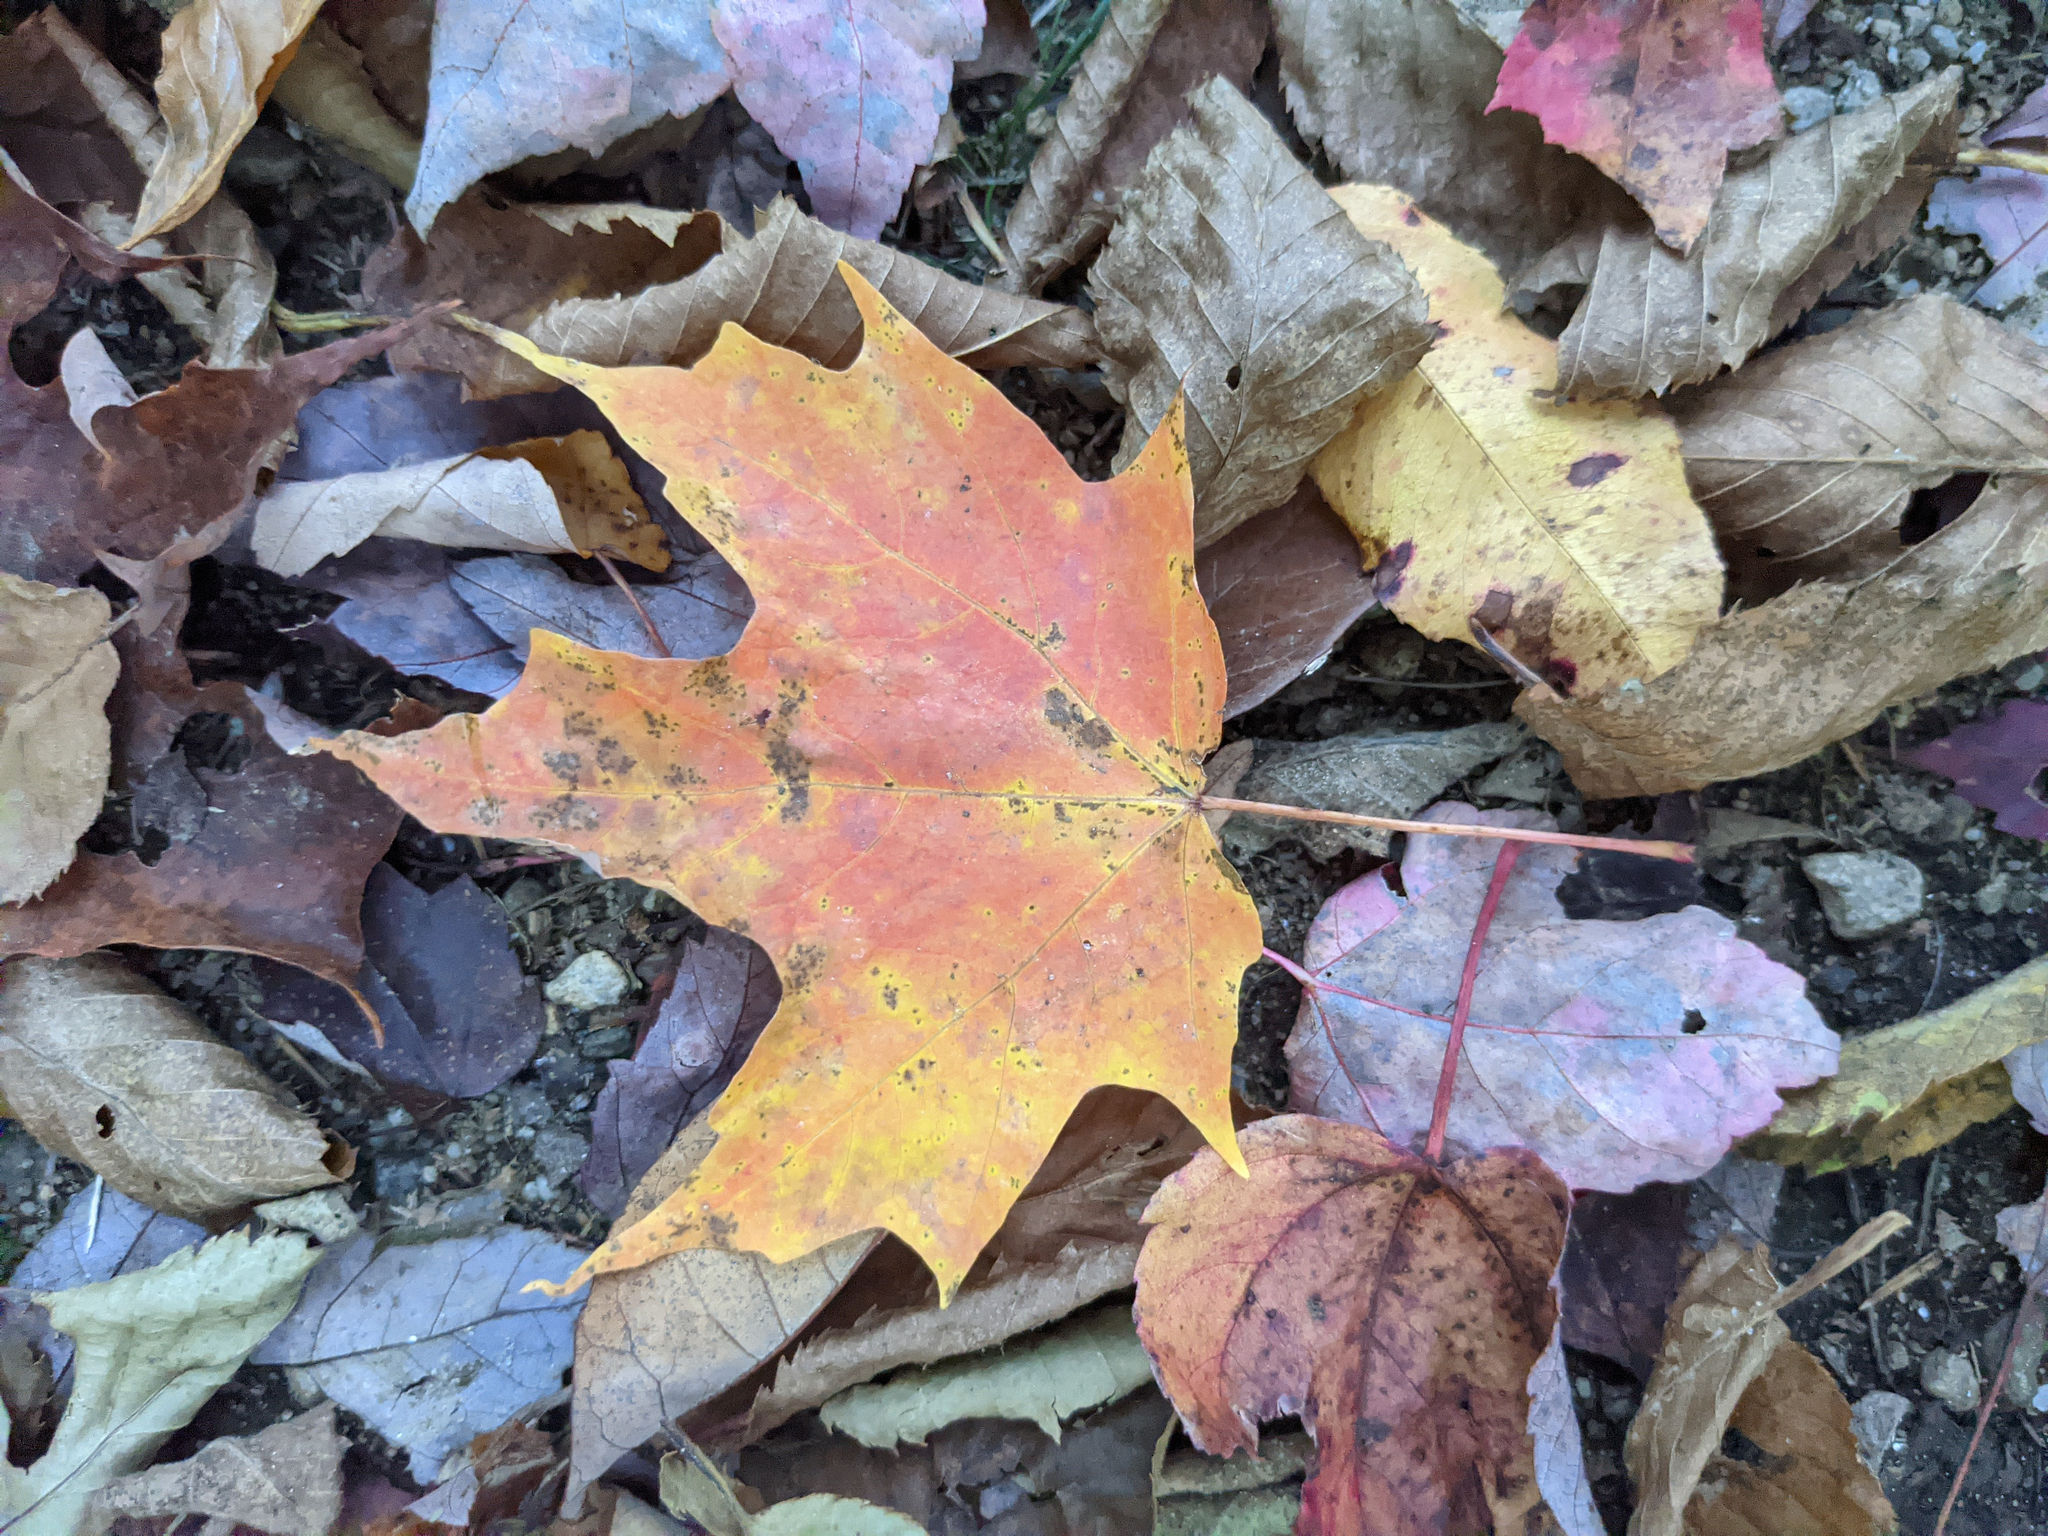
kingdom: Plantae
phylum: Tracheophyta
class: Magnoliopsida
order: Sapindales
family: Sapindaceae
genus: Acer
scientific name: Acer saccharum
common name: Sugar maple
